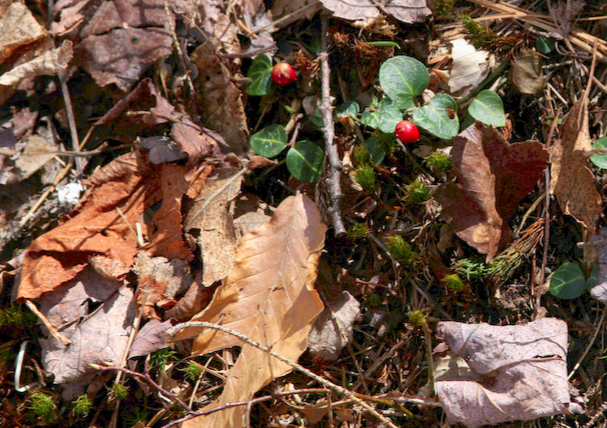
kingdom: Plantae
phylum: Tracheophyta
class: Magnoliopsida
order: Gentianales
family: Rubiaceae
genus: Mitchella
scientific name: Mitchella repens
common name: Partridge-berry
